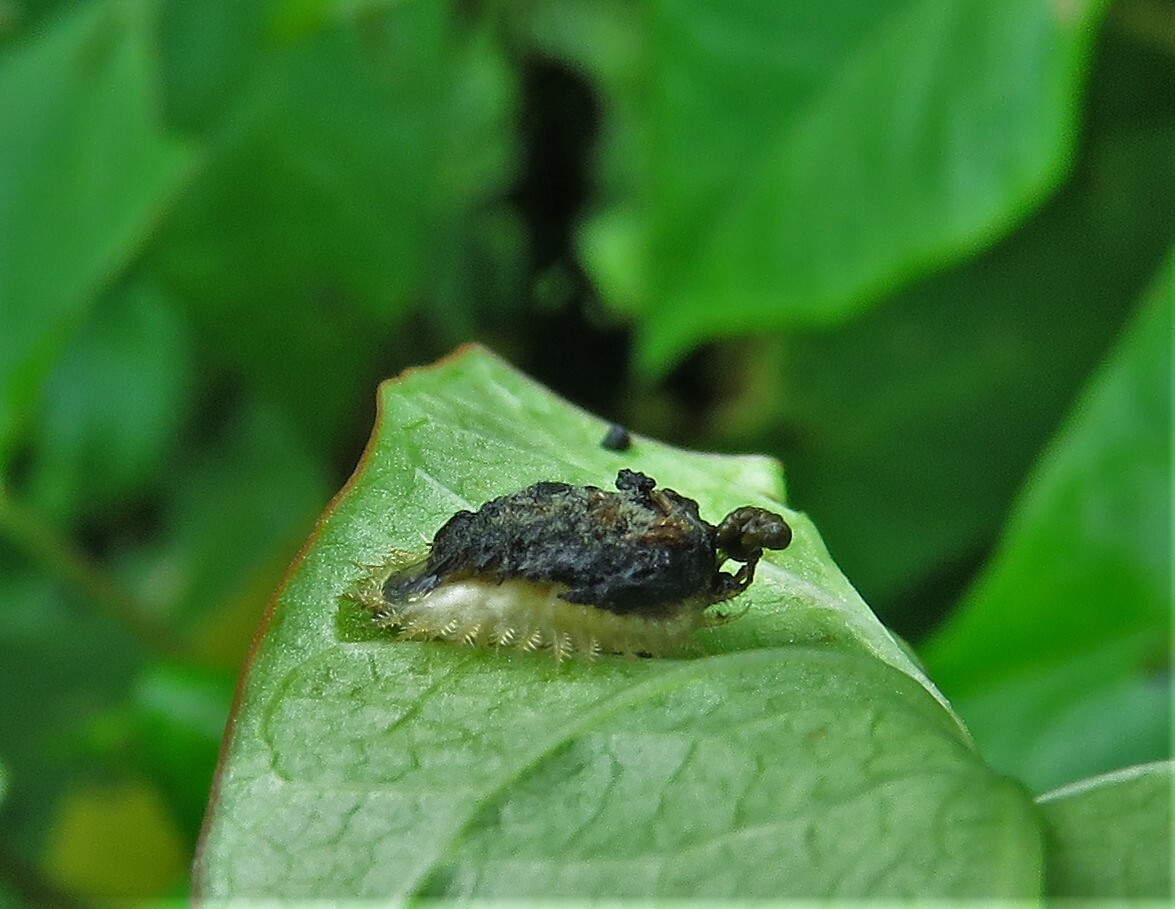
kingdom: Animalia
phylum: Arthropoda
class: Insecta
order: Coleoptera
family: Chrysomelidae
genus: Cassida
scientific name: Cassida rubiginosa
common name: Thistle tortoise beetle
